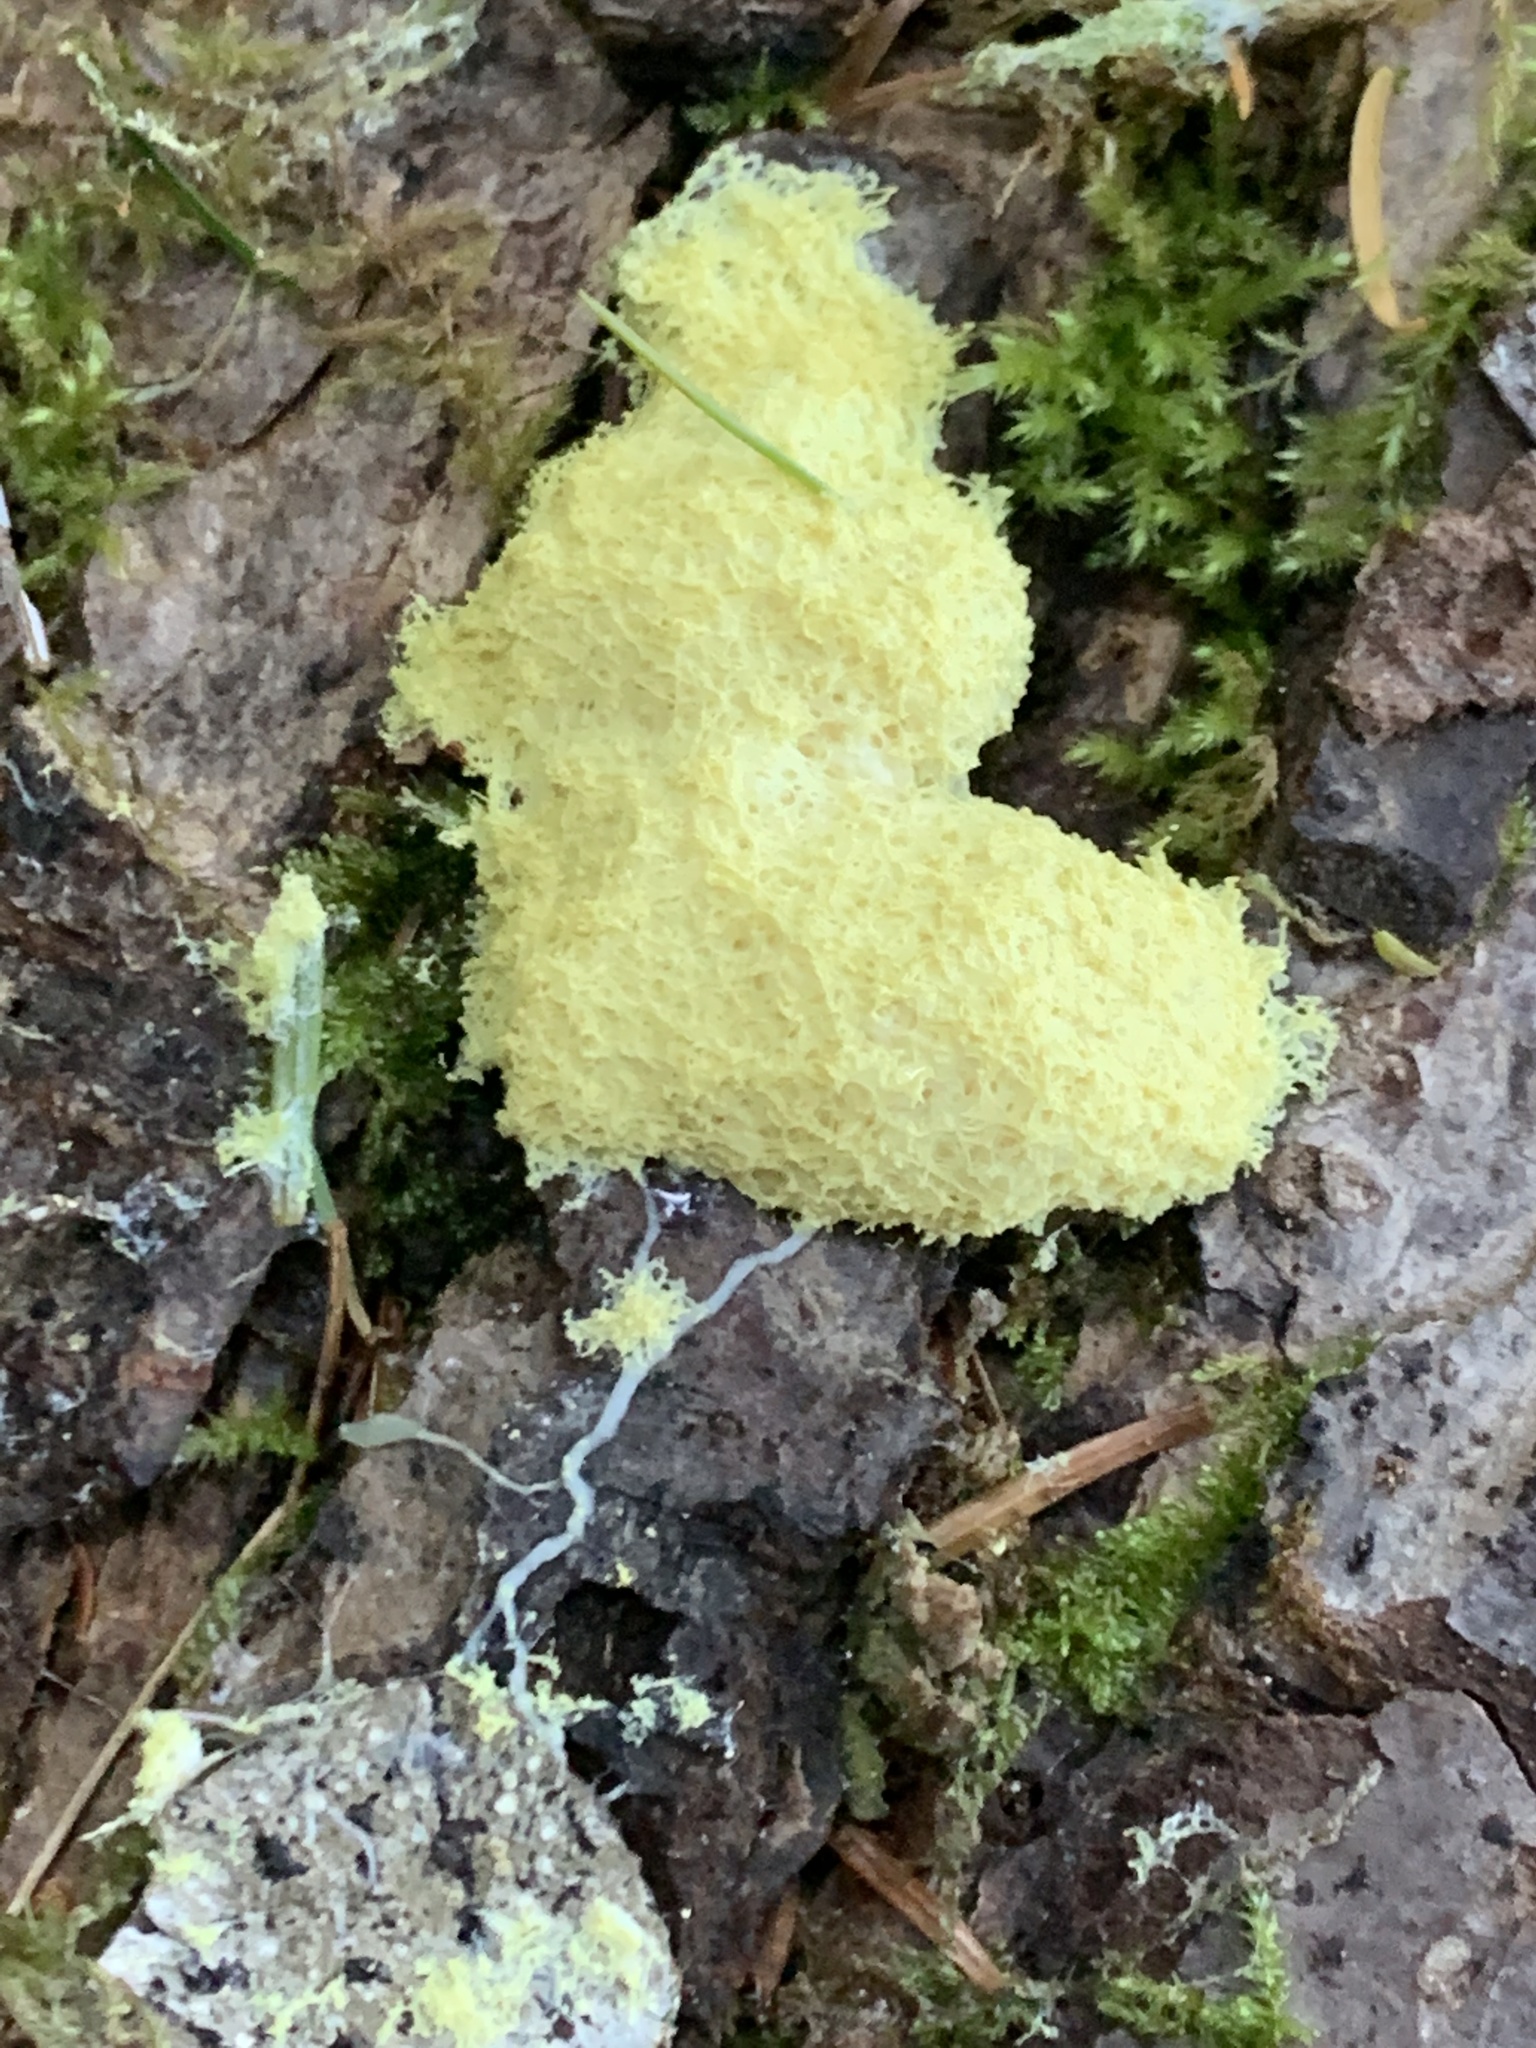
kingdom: Protozoa
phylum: Mycetozoa
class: Myxomycetes
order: Physarales
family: Physaraceae
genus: Fuligo
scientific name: Fuligo septica
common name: Dog vomit slime mold
